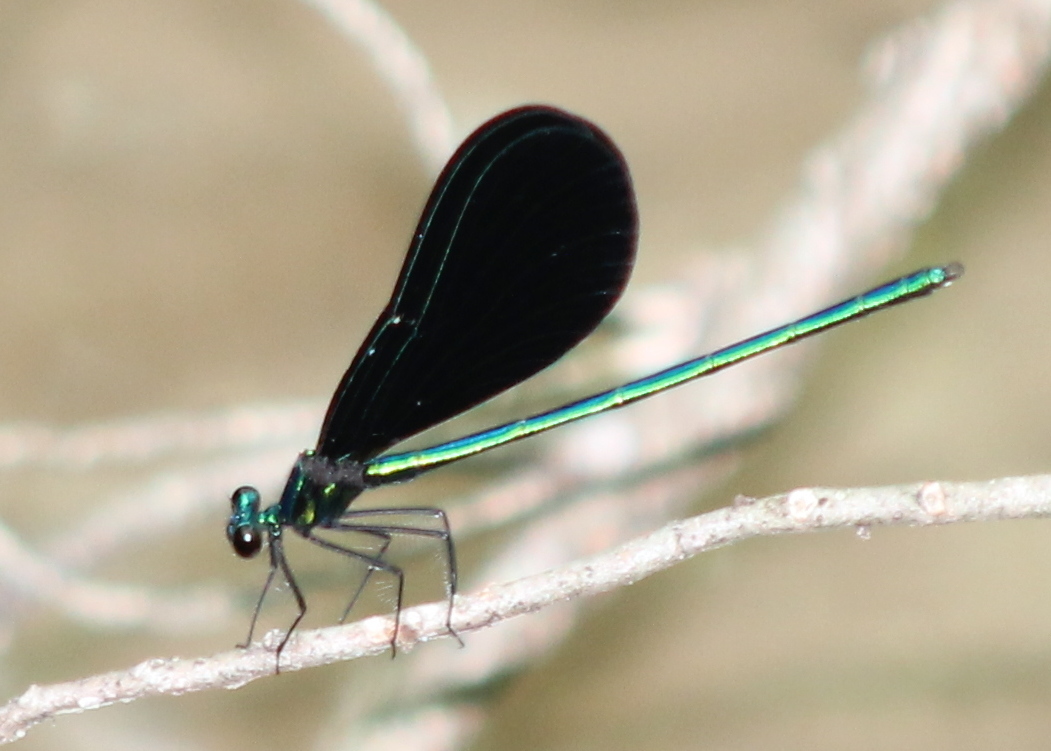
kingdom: Animalia
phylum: Arthropoda
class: Insecta
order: Odonata
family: Calopterygidae
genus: Calopteryx
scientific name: Calopteryx maculata
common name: Ebony jewelwing
